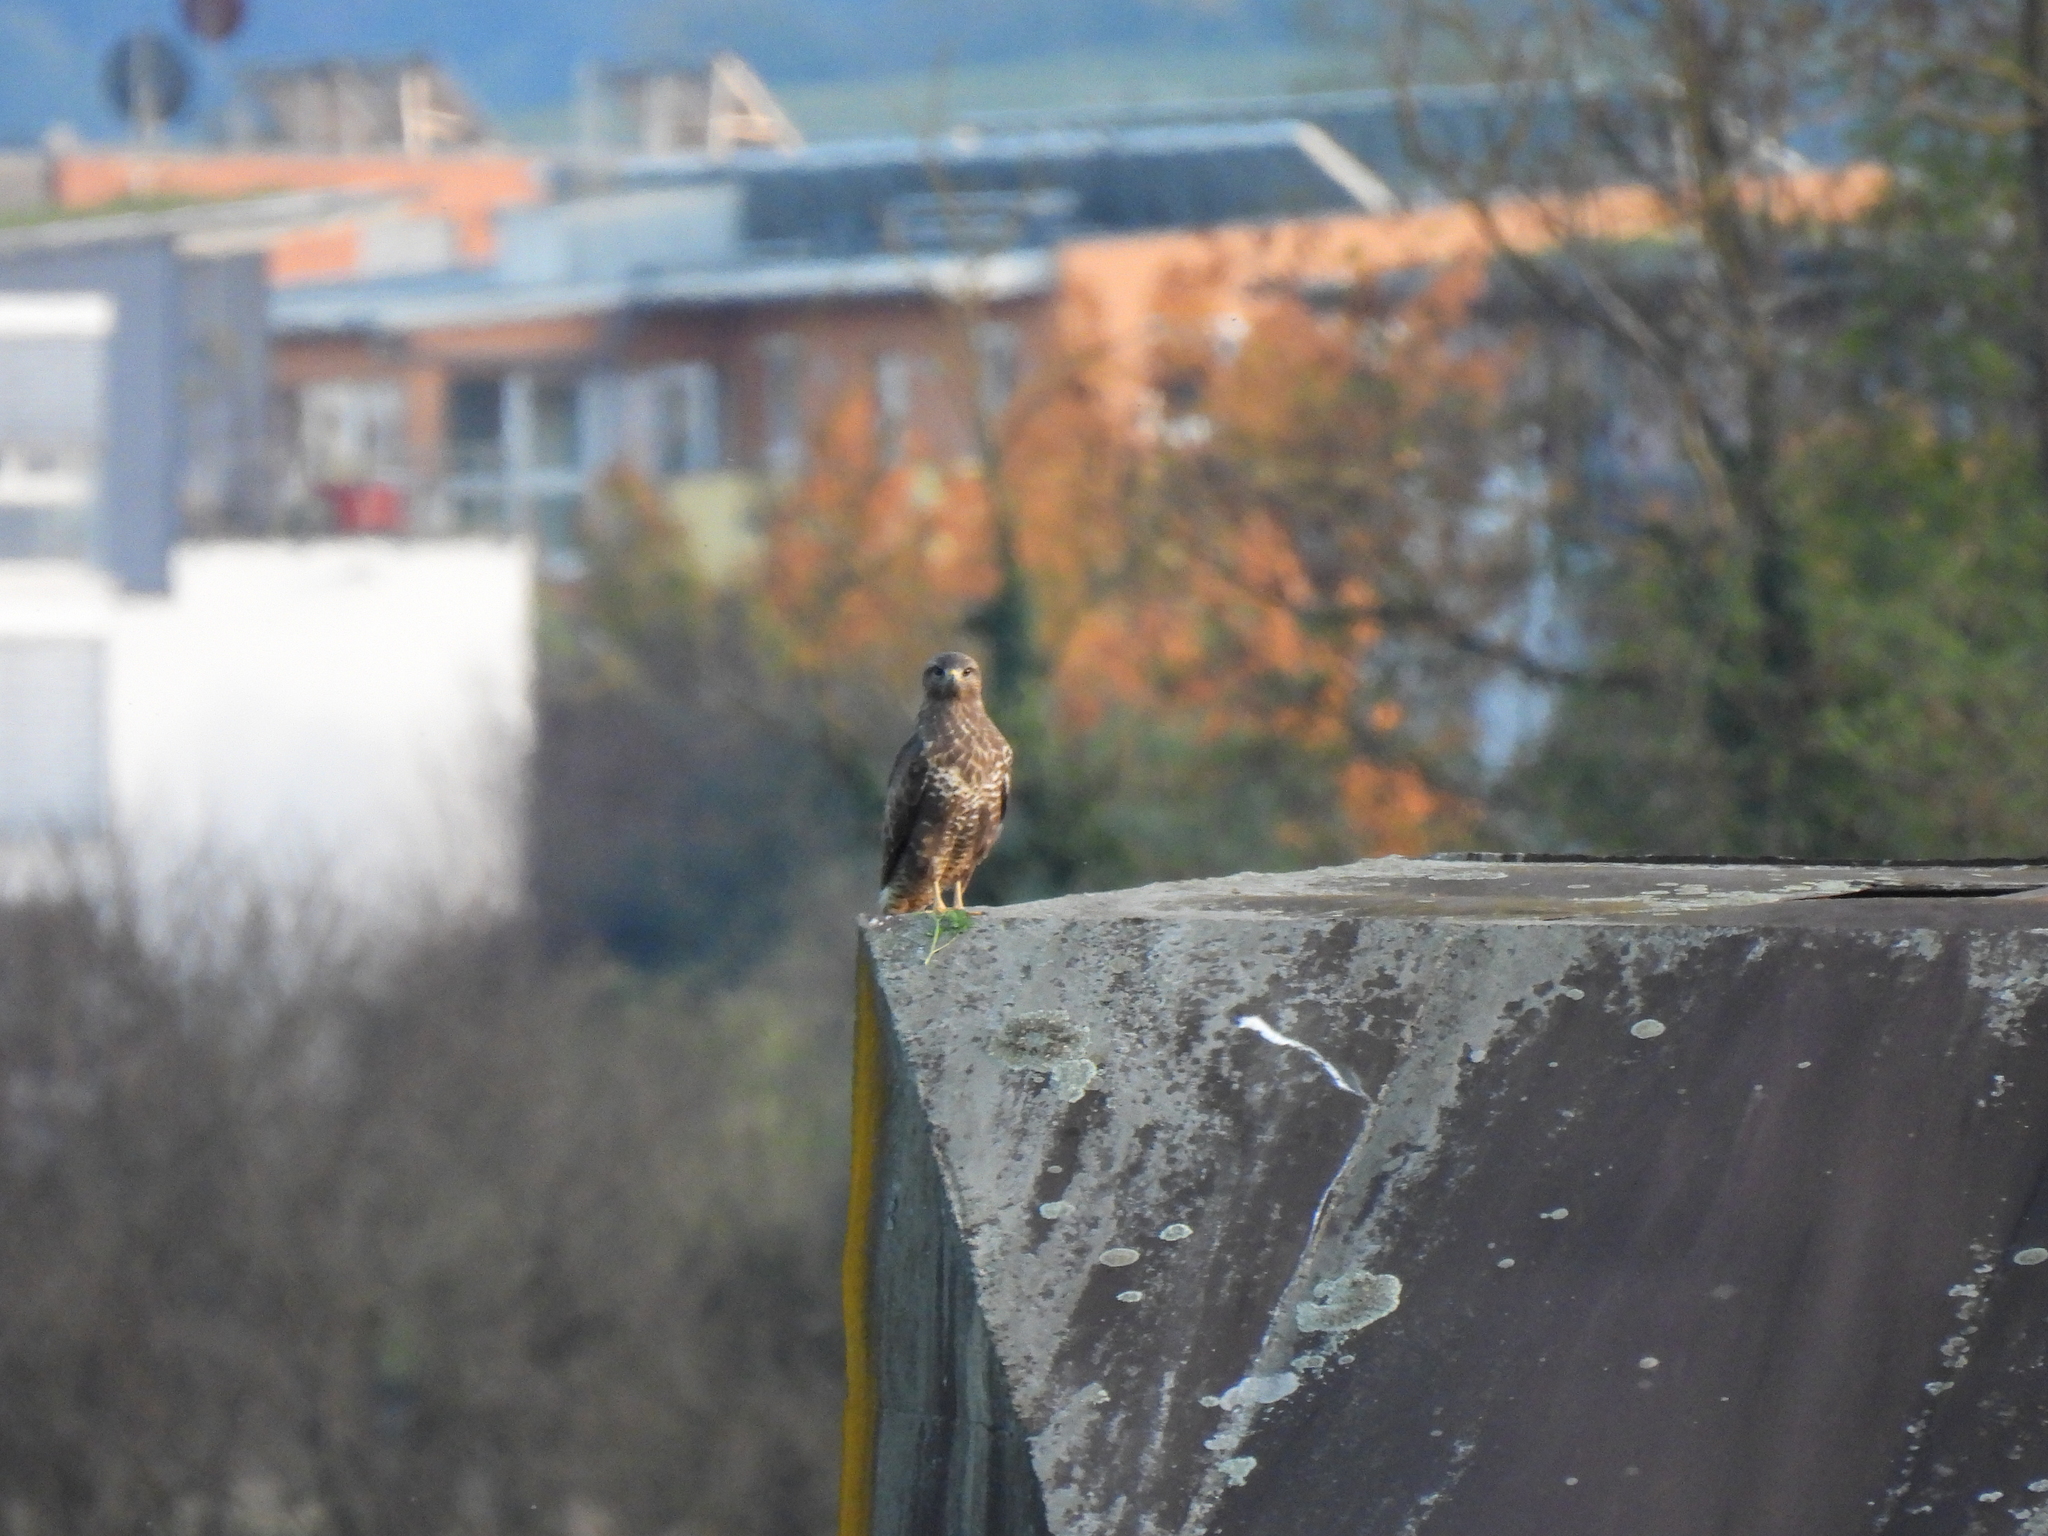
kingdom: Animalia
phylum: Chordata
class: Aves
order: Accipitriformes
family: Accipitridae
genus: Buteo
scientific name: Buteo buteo
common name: Common buzzard
